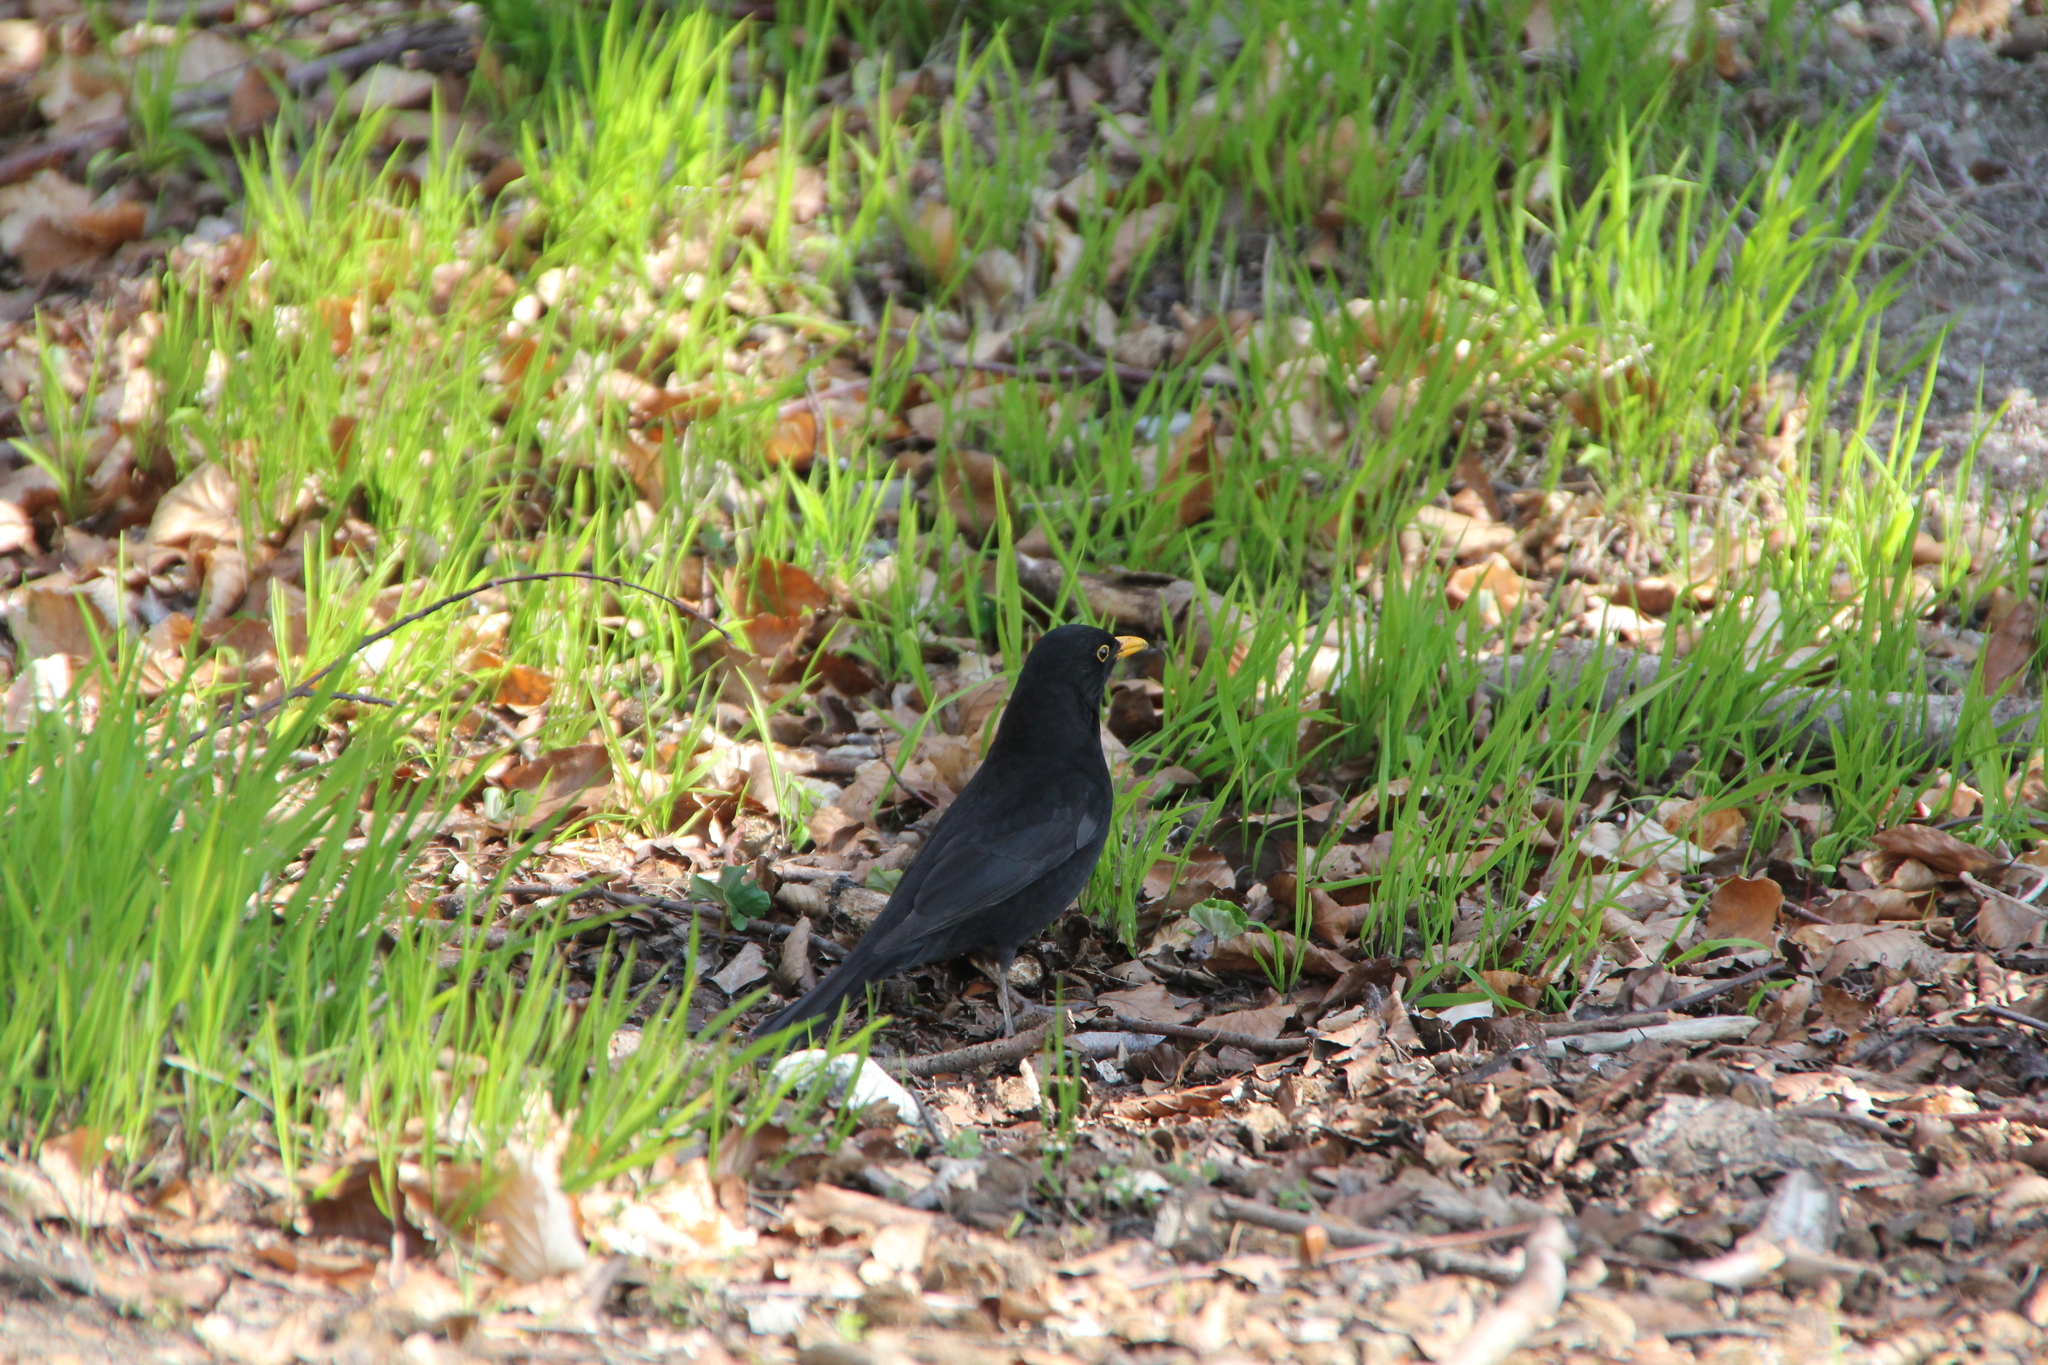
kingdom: Animalia
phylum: Chordata
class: Aves
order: Passeriformes
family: Turdidae
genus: Turdus
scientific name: Turdus merula
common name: Common blackbird
